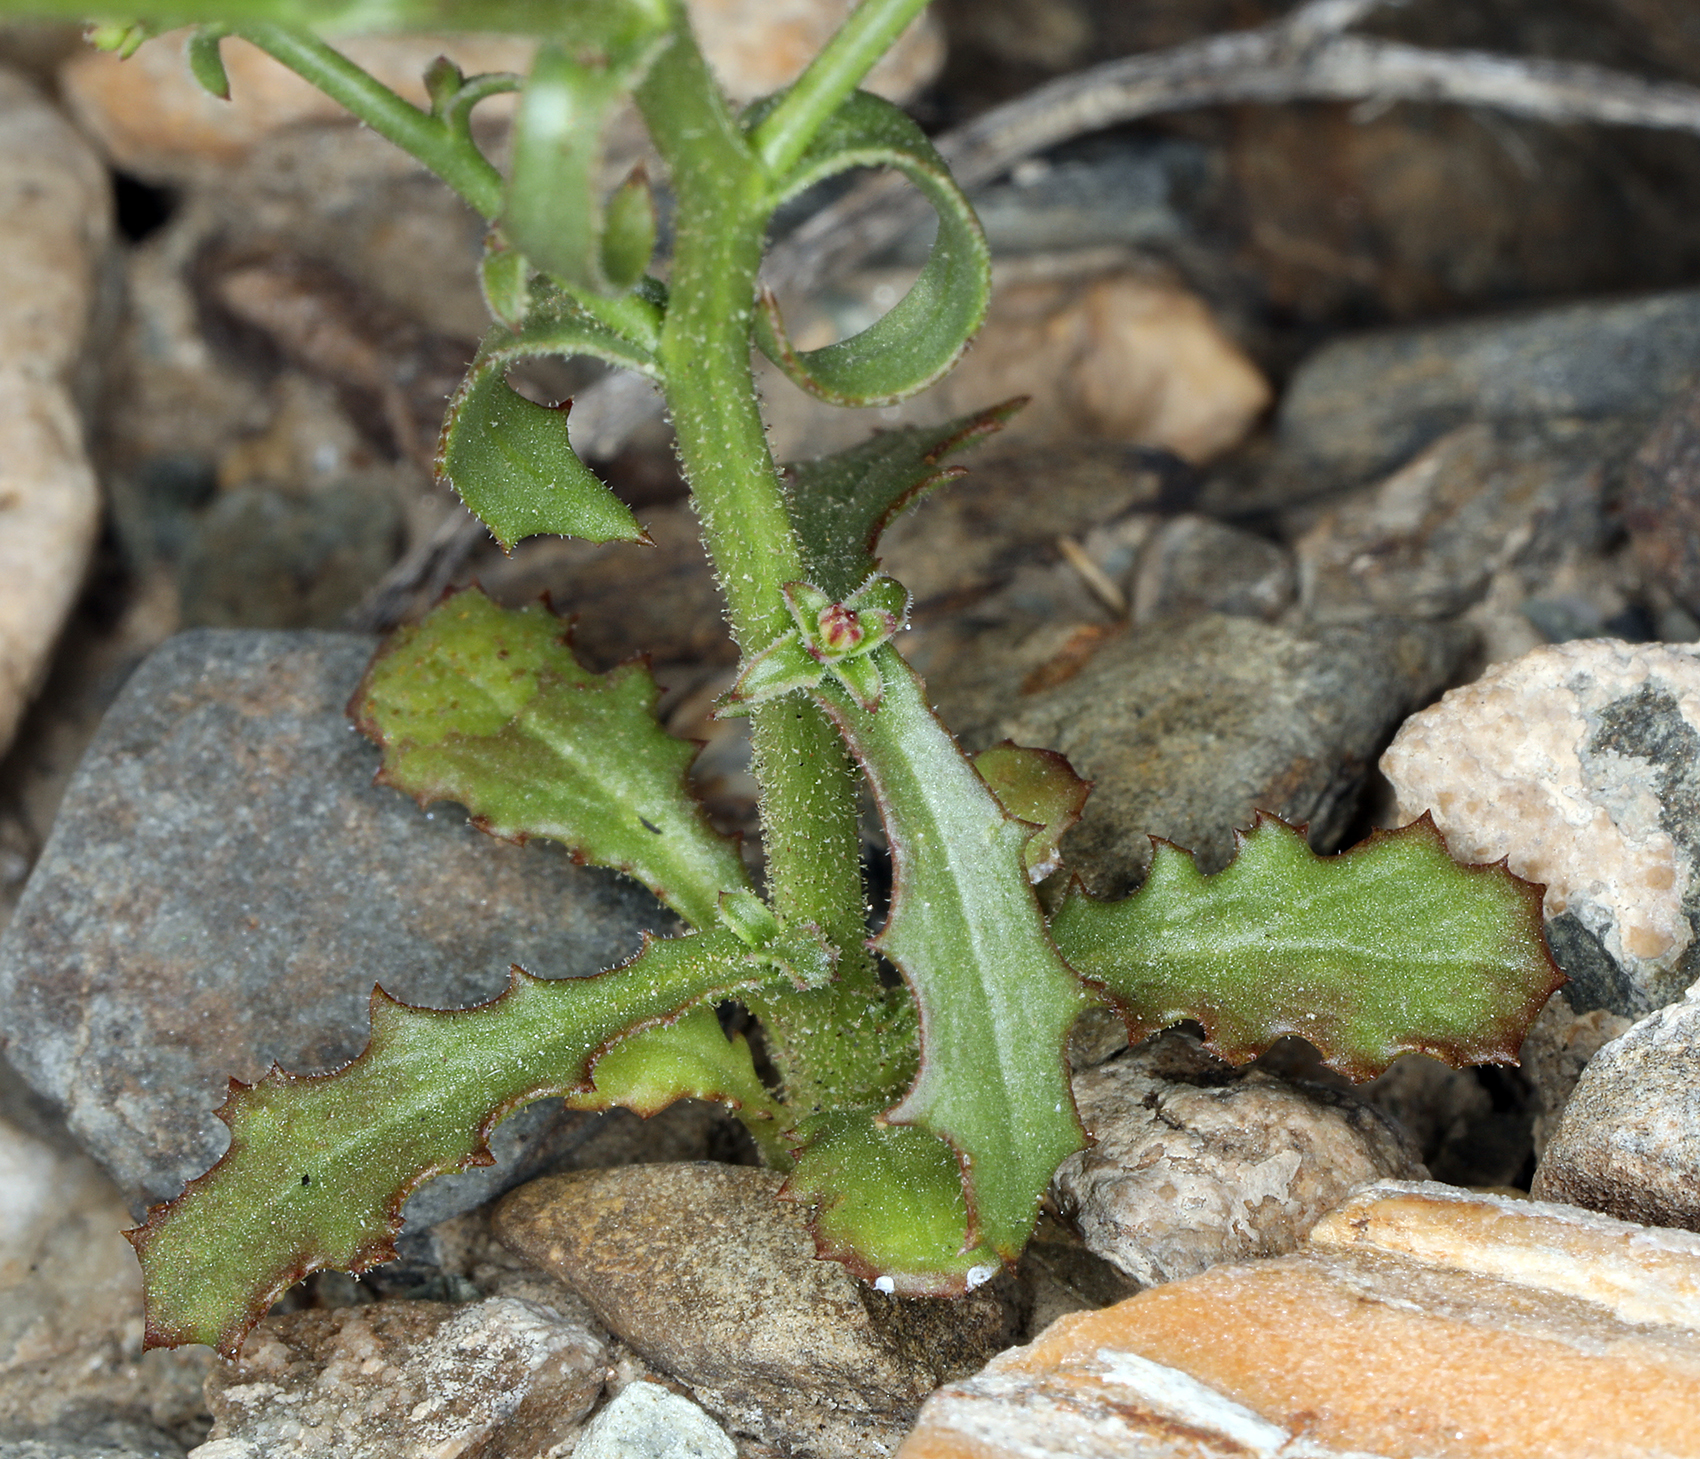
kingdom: Plantae
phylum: Tracheophyta
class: Magnoliopsida
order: Asterales
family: Asteraceae
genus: Lygodesmia
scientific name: Lygodesmia exigua
